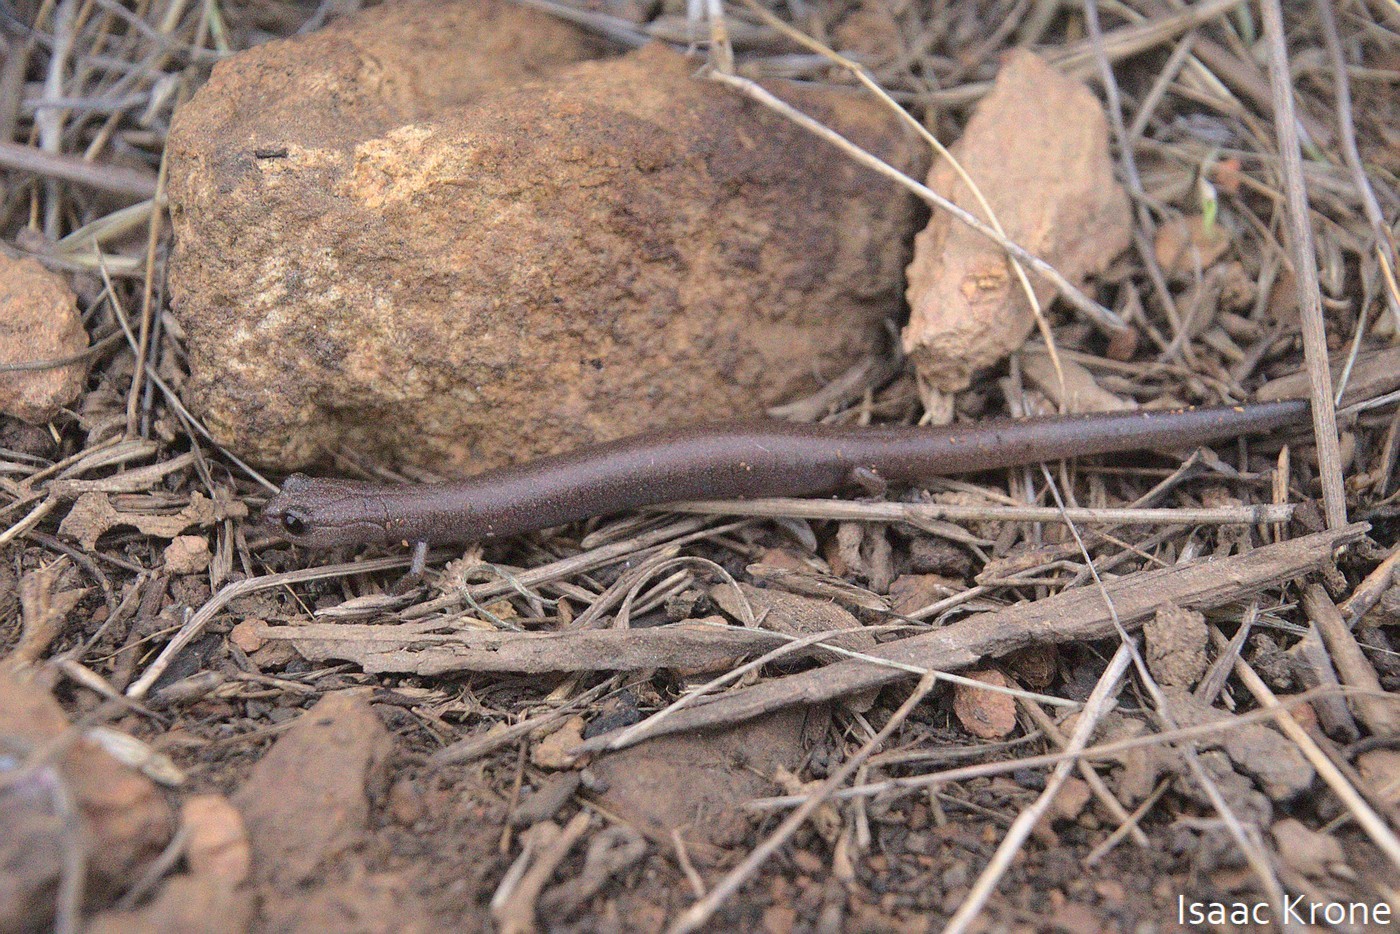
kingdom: Animalia
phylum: Chordata
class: Amphibia
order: Caudata
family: Plethodontidae
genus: Batrachoseps
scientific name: Batrachoseps major
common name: Garden slender salamander
